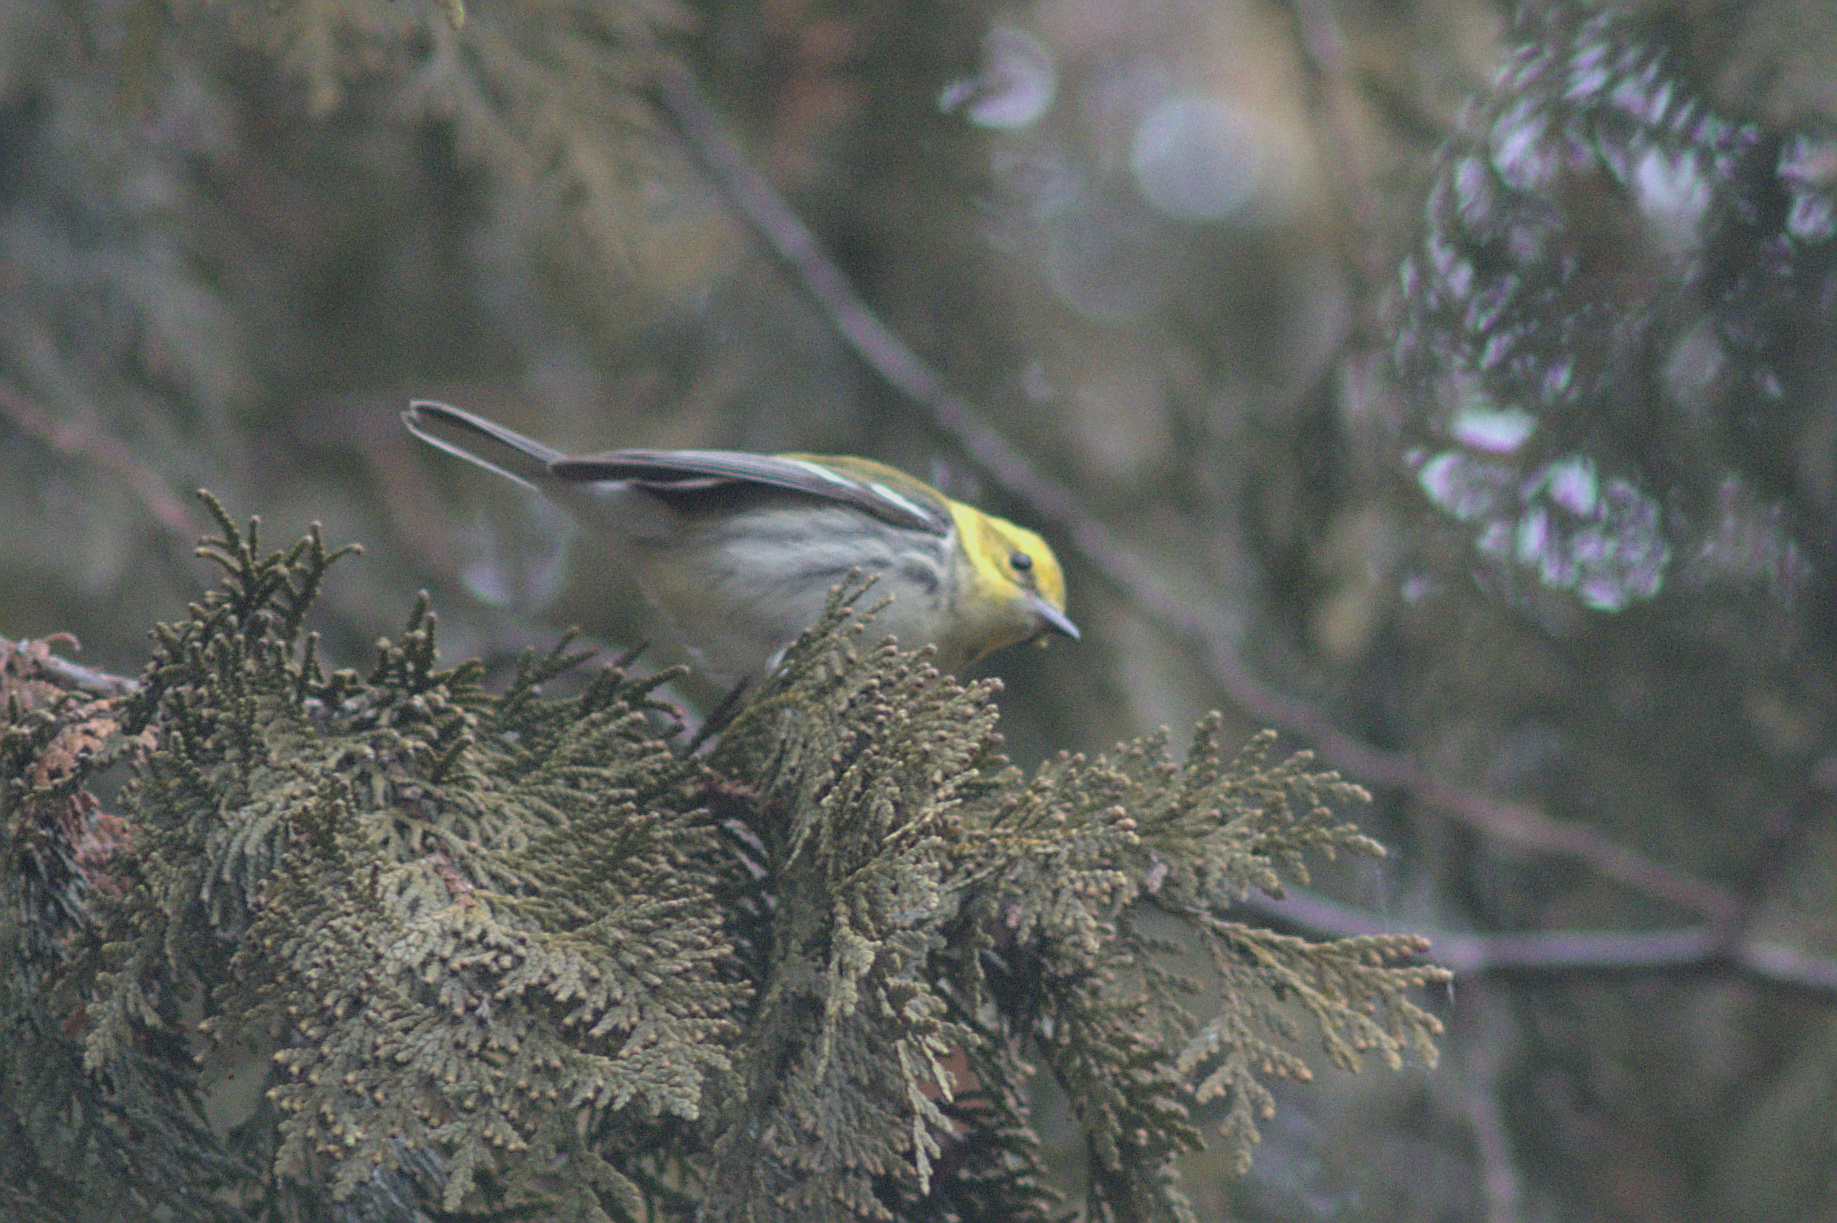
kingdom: Animalia
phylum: Chordata
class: Aves
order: Passeriformes
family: Parulidae
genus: Setophaga
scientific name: Setophaga virens
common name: Black-throated green warbler
